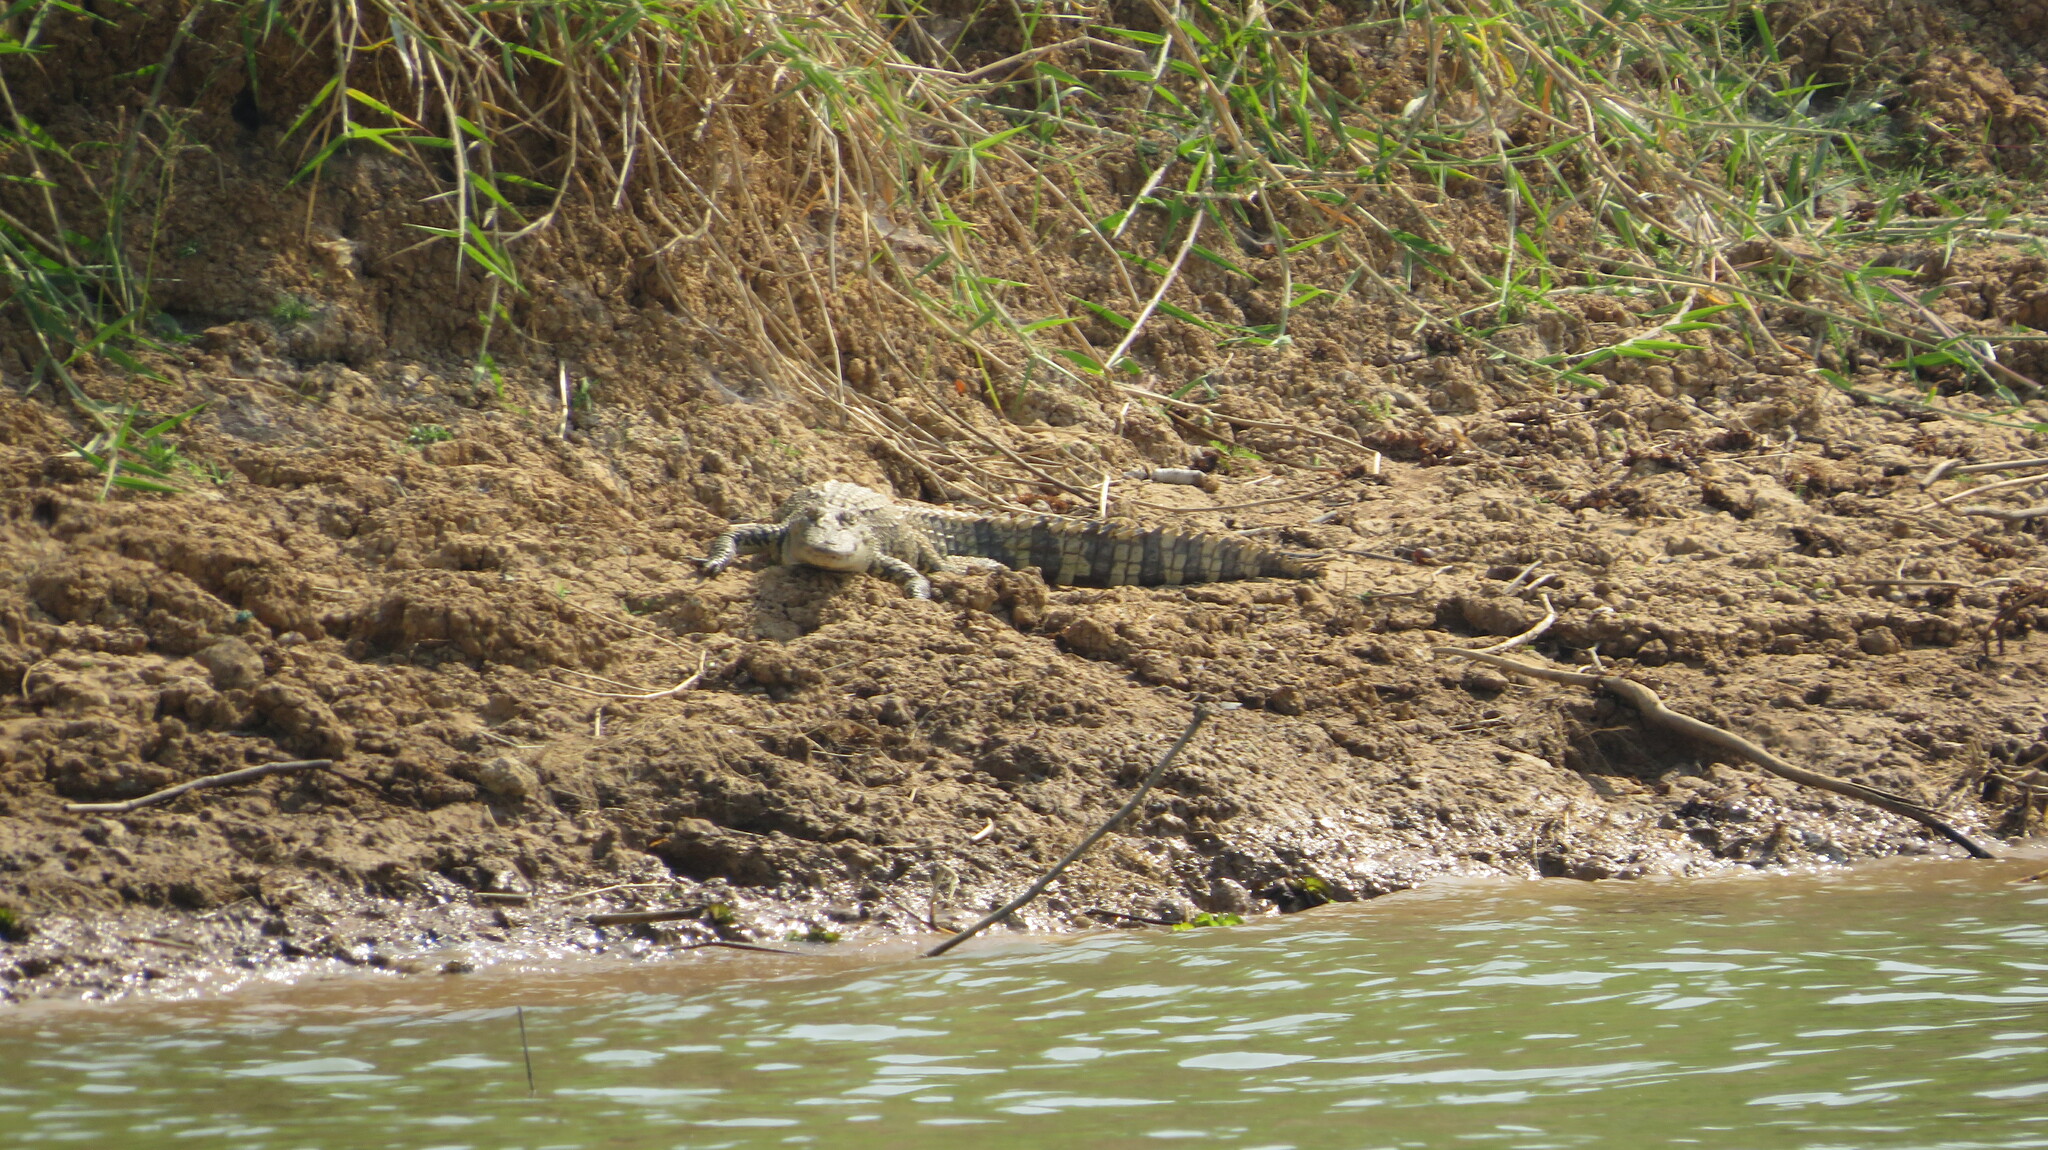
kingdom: Animalia
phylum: Chordata
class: Crocodylia
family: Crocodylidae
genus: Crocodylus
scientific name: Crocodylus siamensis
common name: Siamese crocodile
